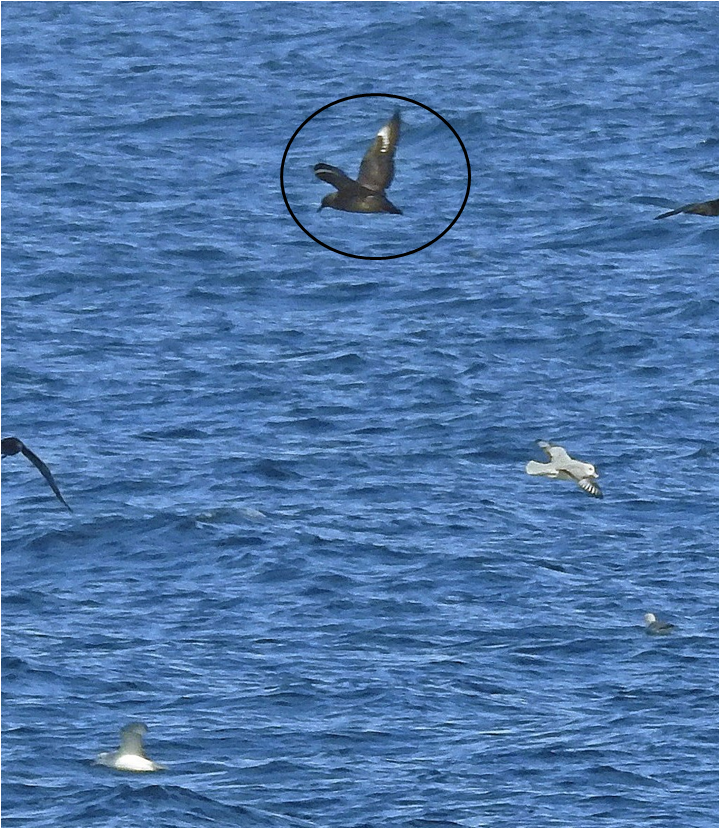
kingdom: Animalia
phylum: Chordata
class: Aves
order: Charadriiformes
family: Stercorariidae
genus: Stercorarius
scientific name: Stercorarius antarcticus
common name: Brown skua
